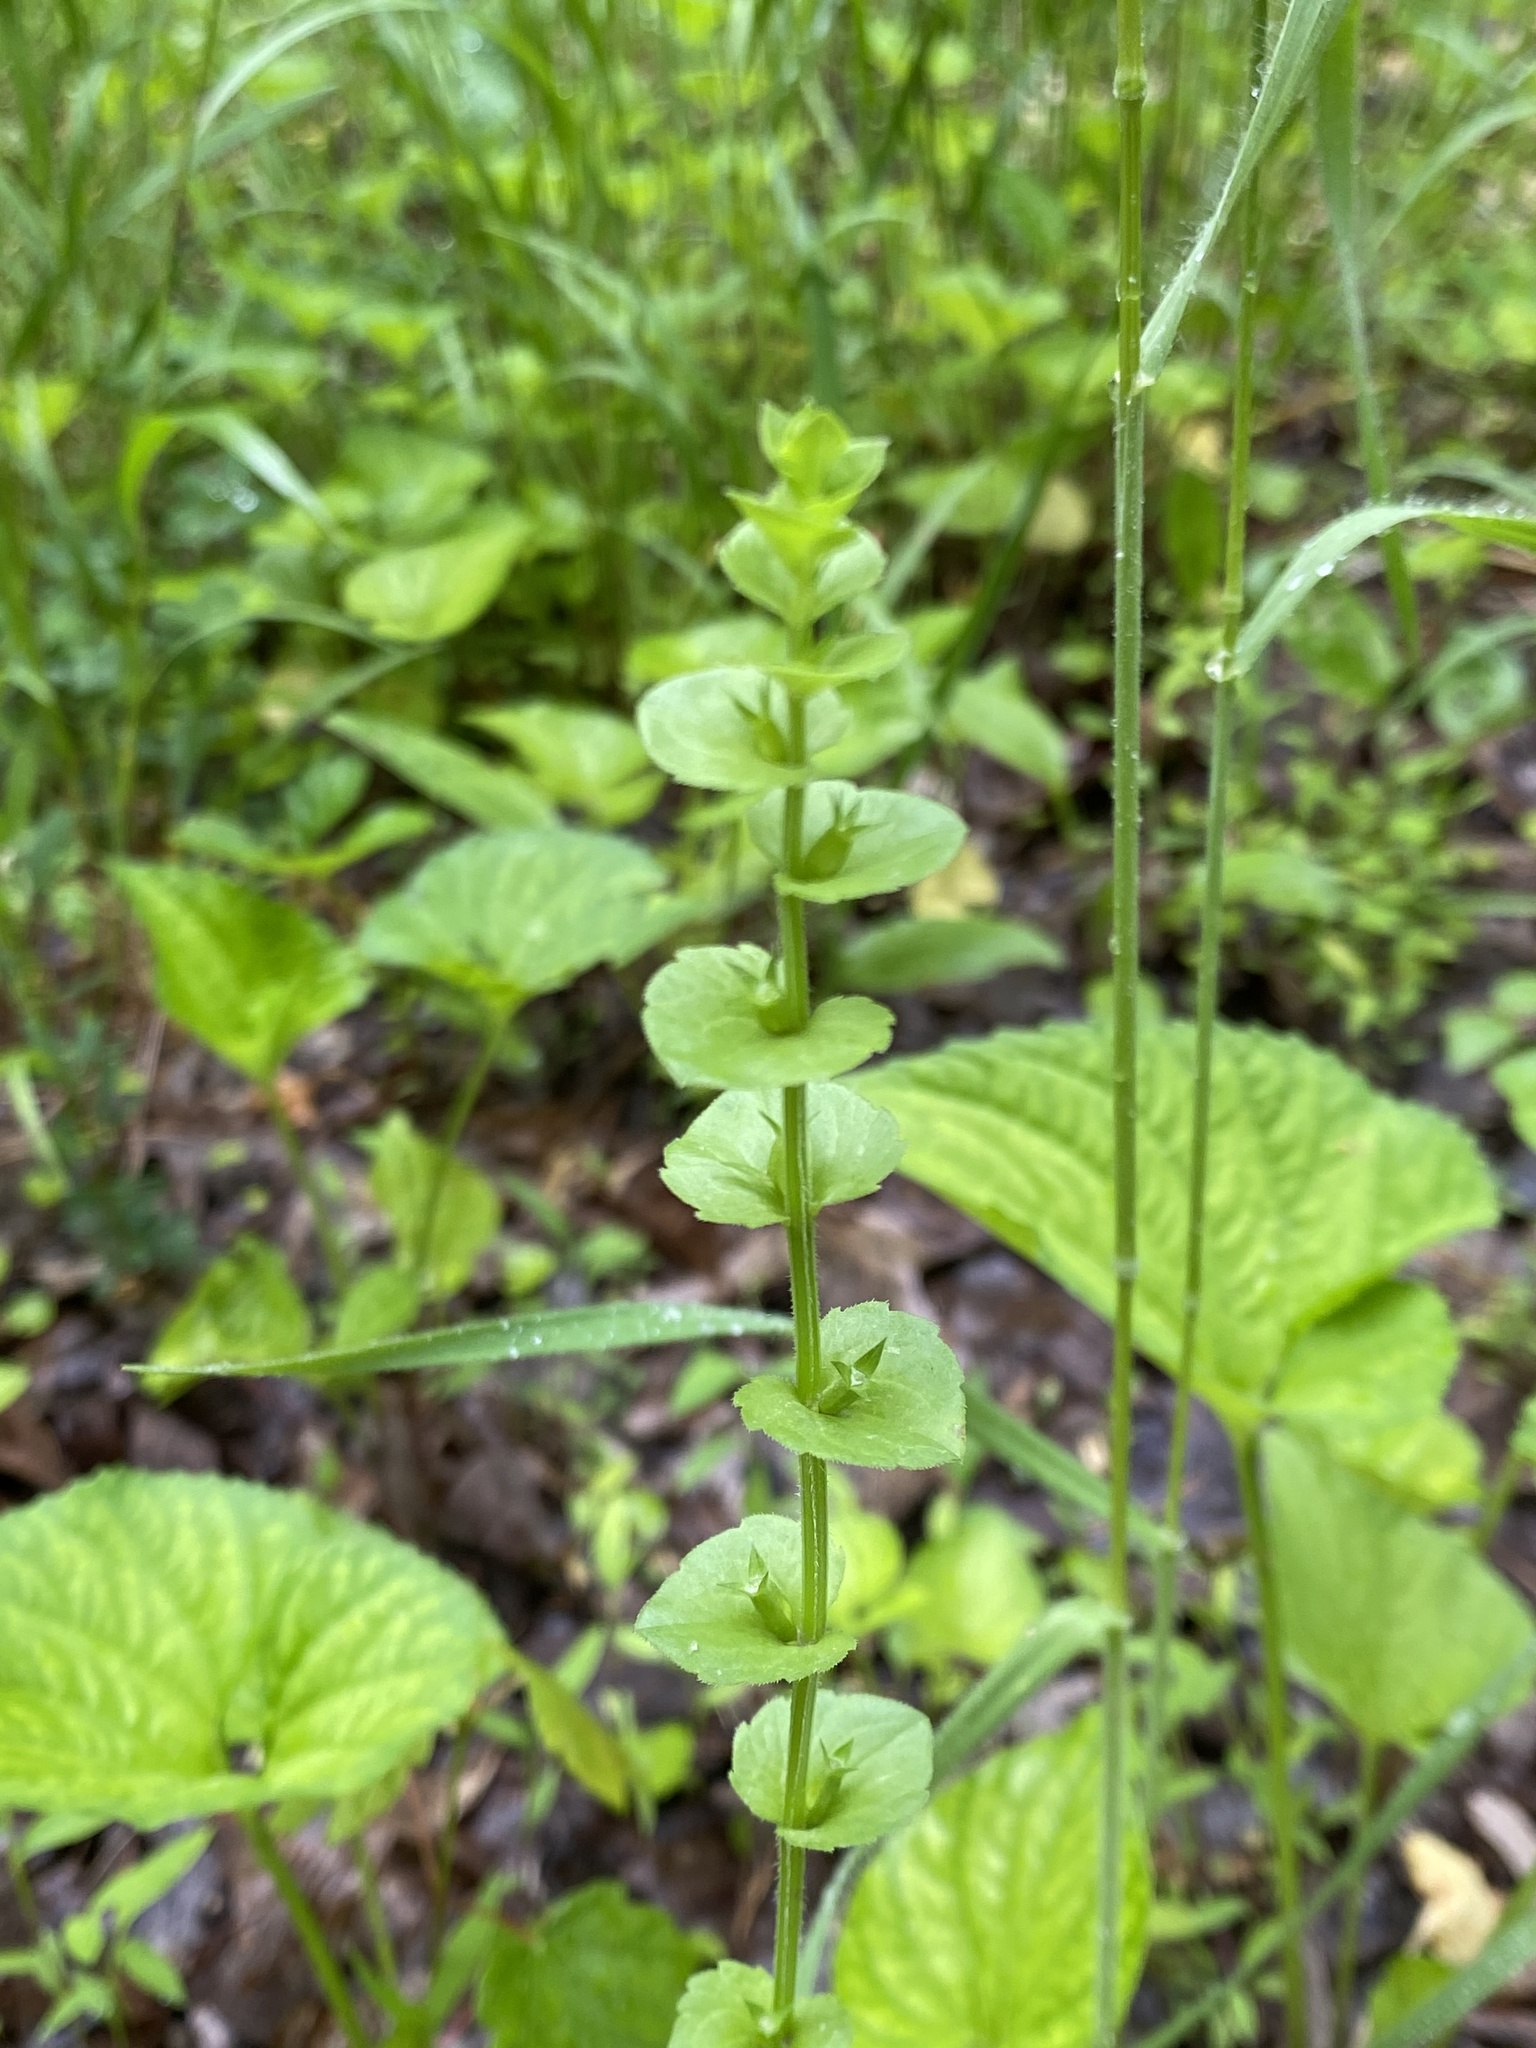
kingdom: Plantae
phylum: Tracheophyta
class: Magnoliopsida
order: Asterales
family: Campanulaceae
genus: Triodanis
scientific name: Triodanis perfoliata
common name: Clasping venus' looking-glass
